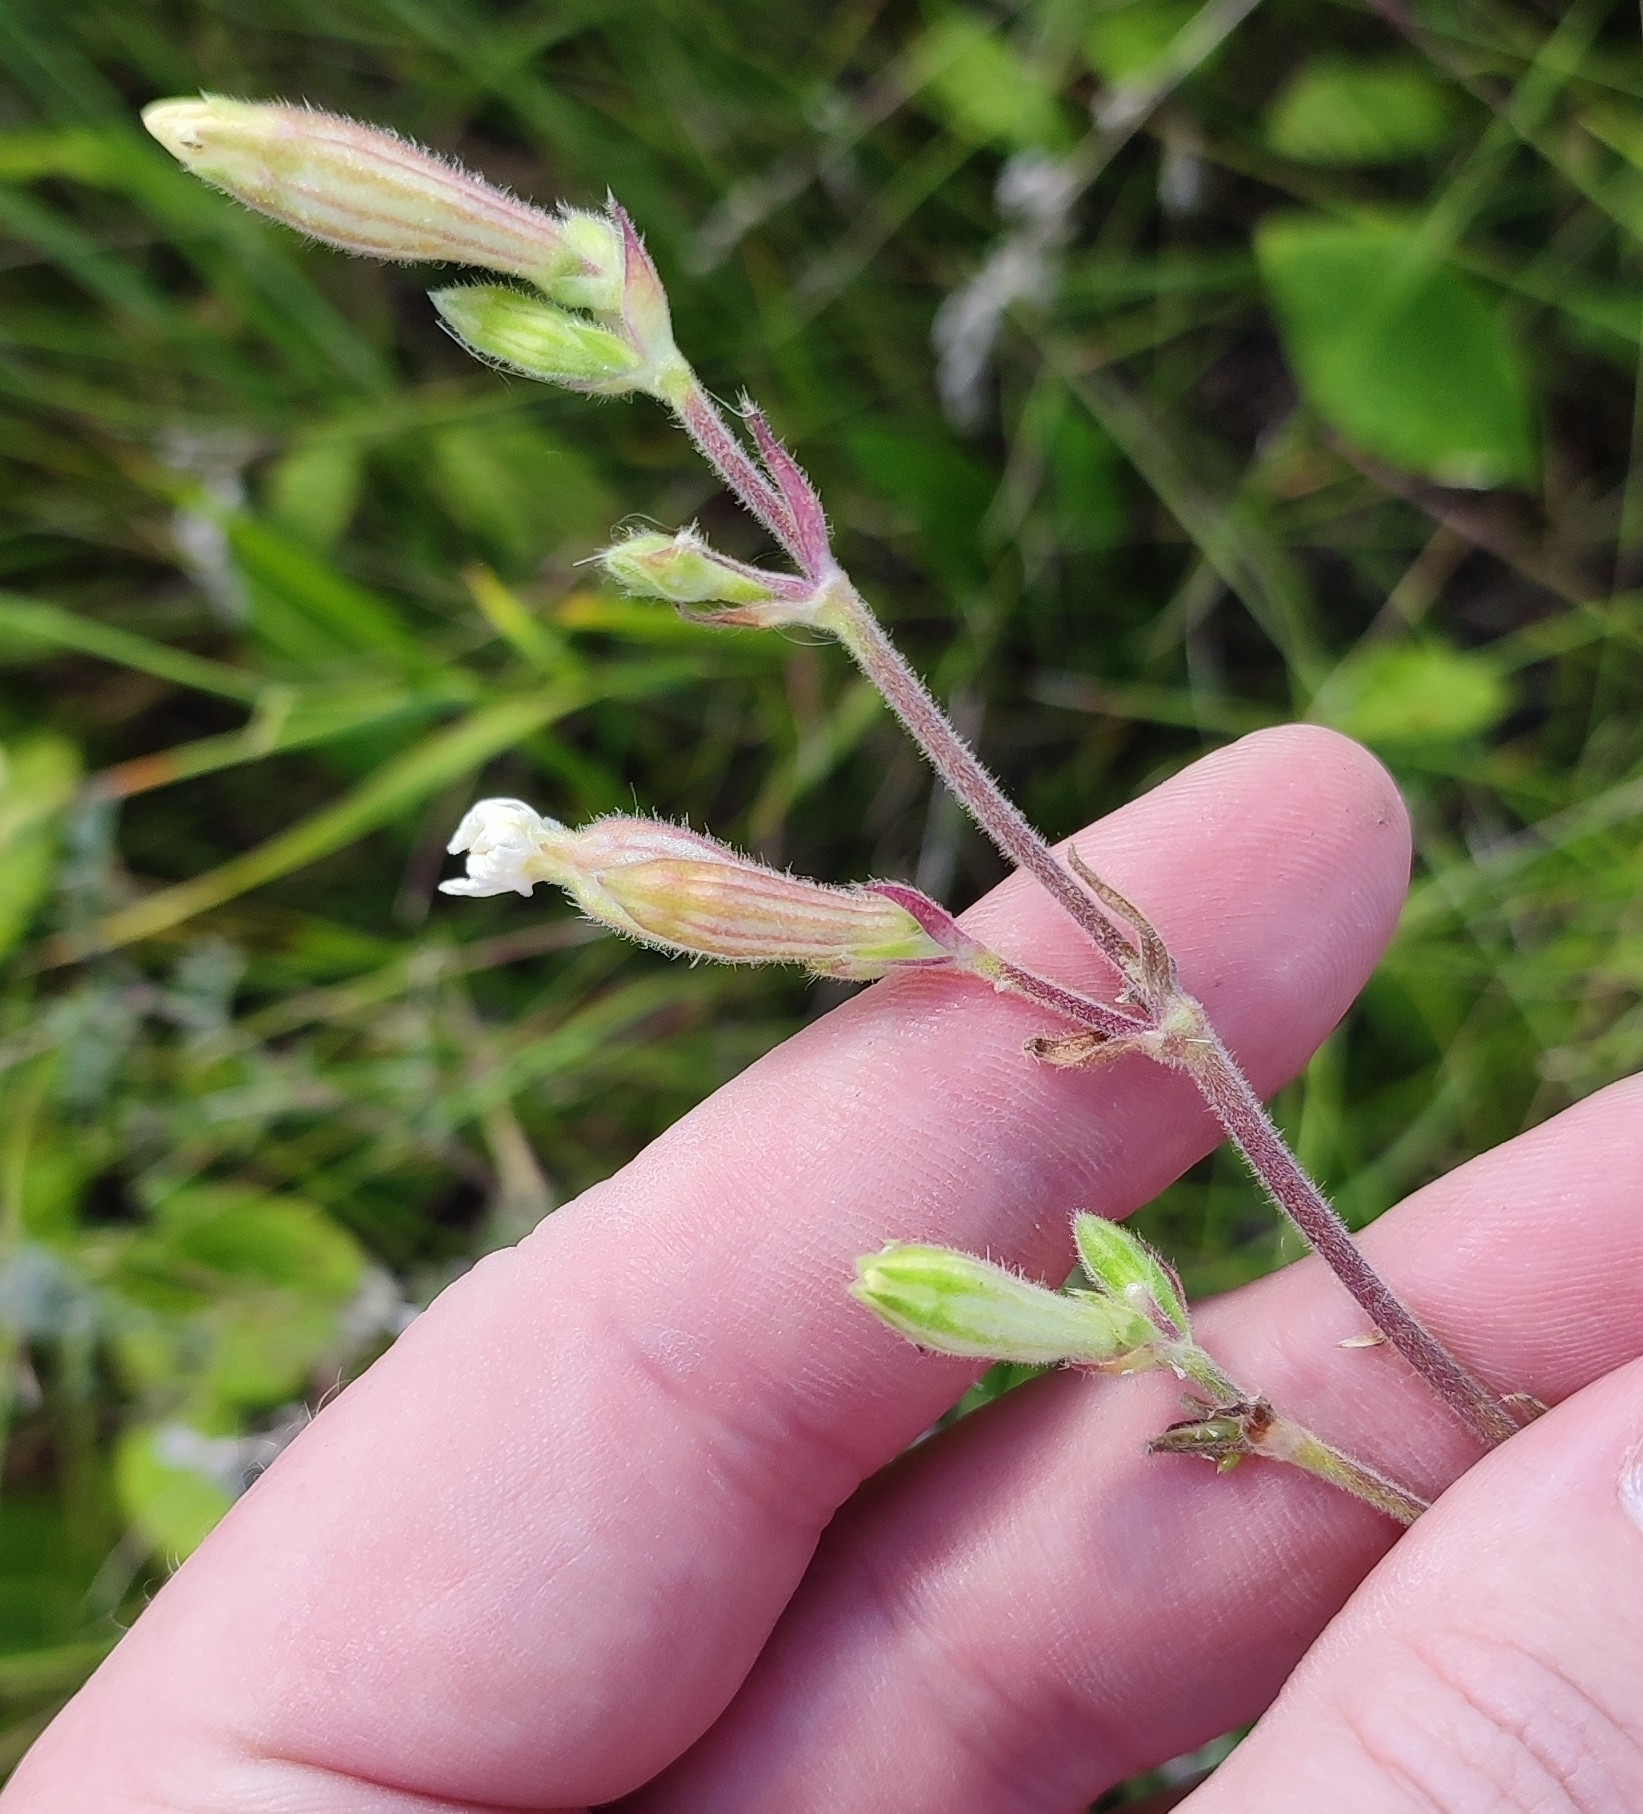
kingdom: Plantae
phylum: Tracheophyta
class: Magnoliopsida
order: Caryophyllales
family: Caryophyllaceae
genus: Silene
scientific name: Silene latifolia
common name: White campion
